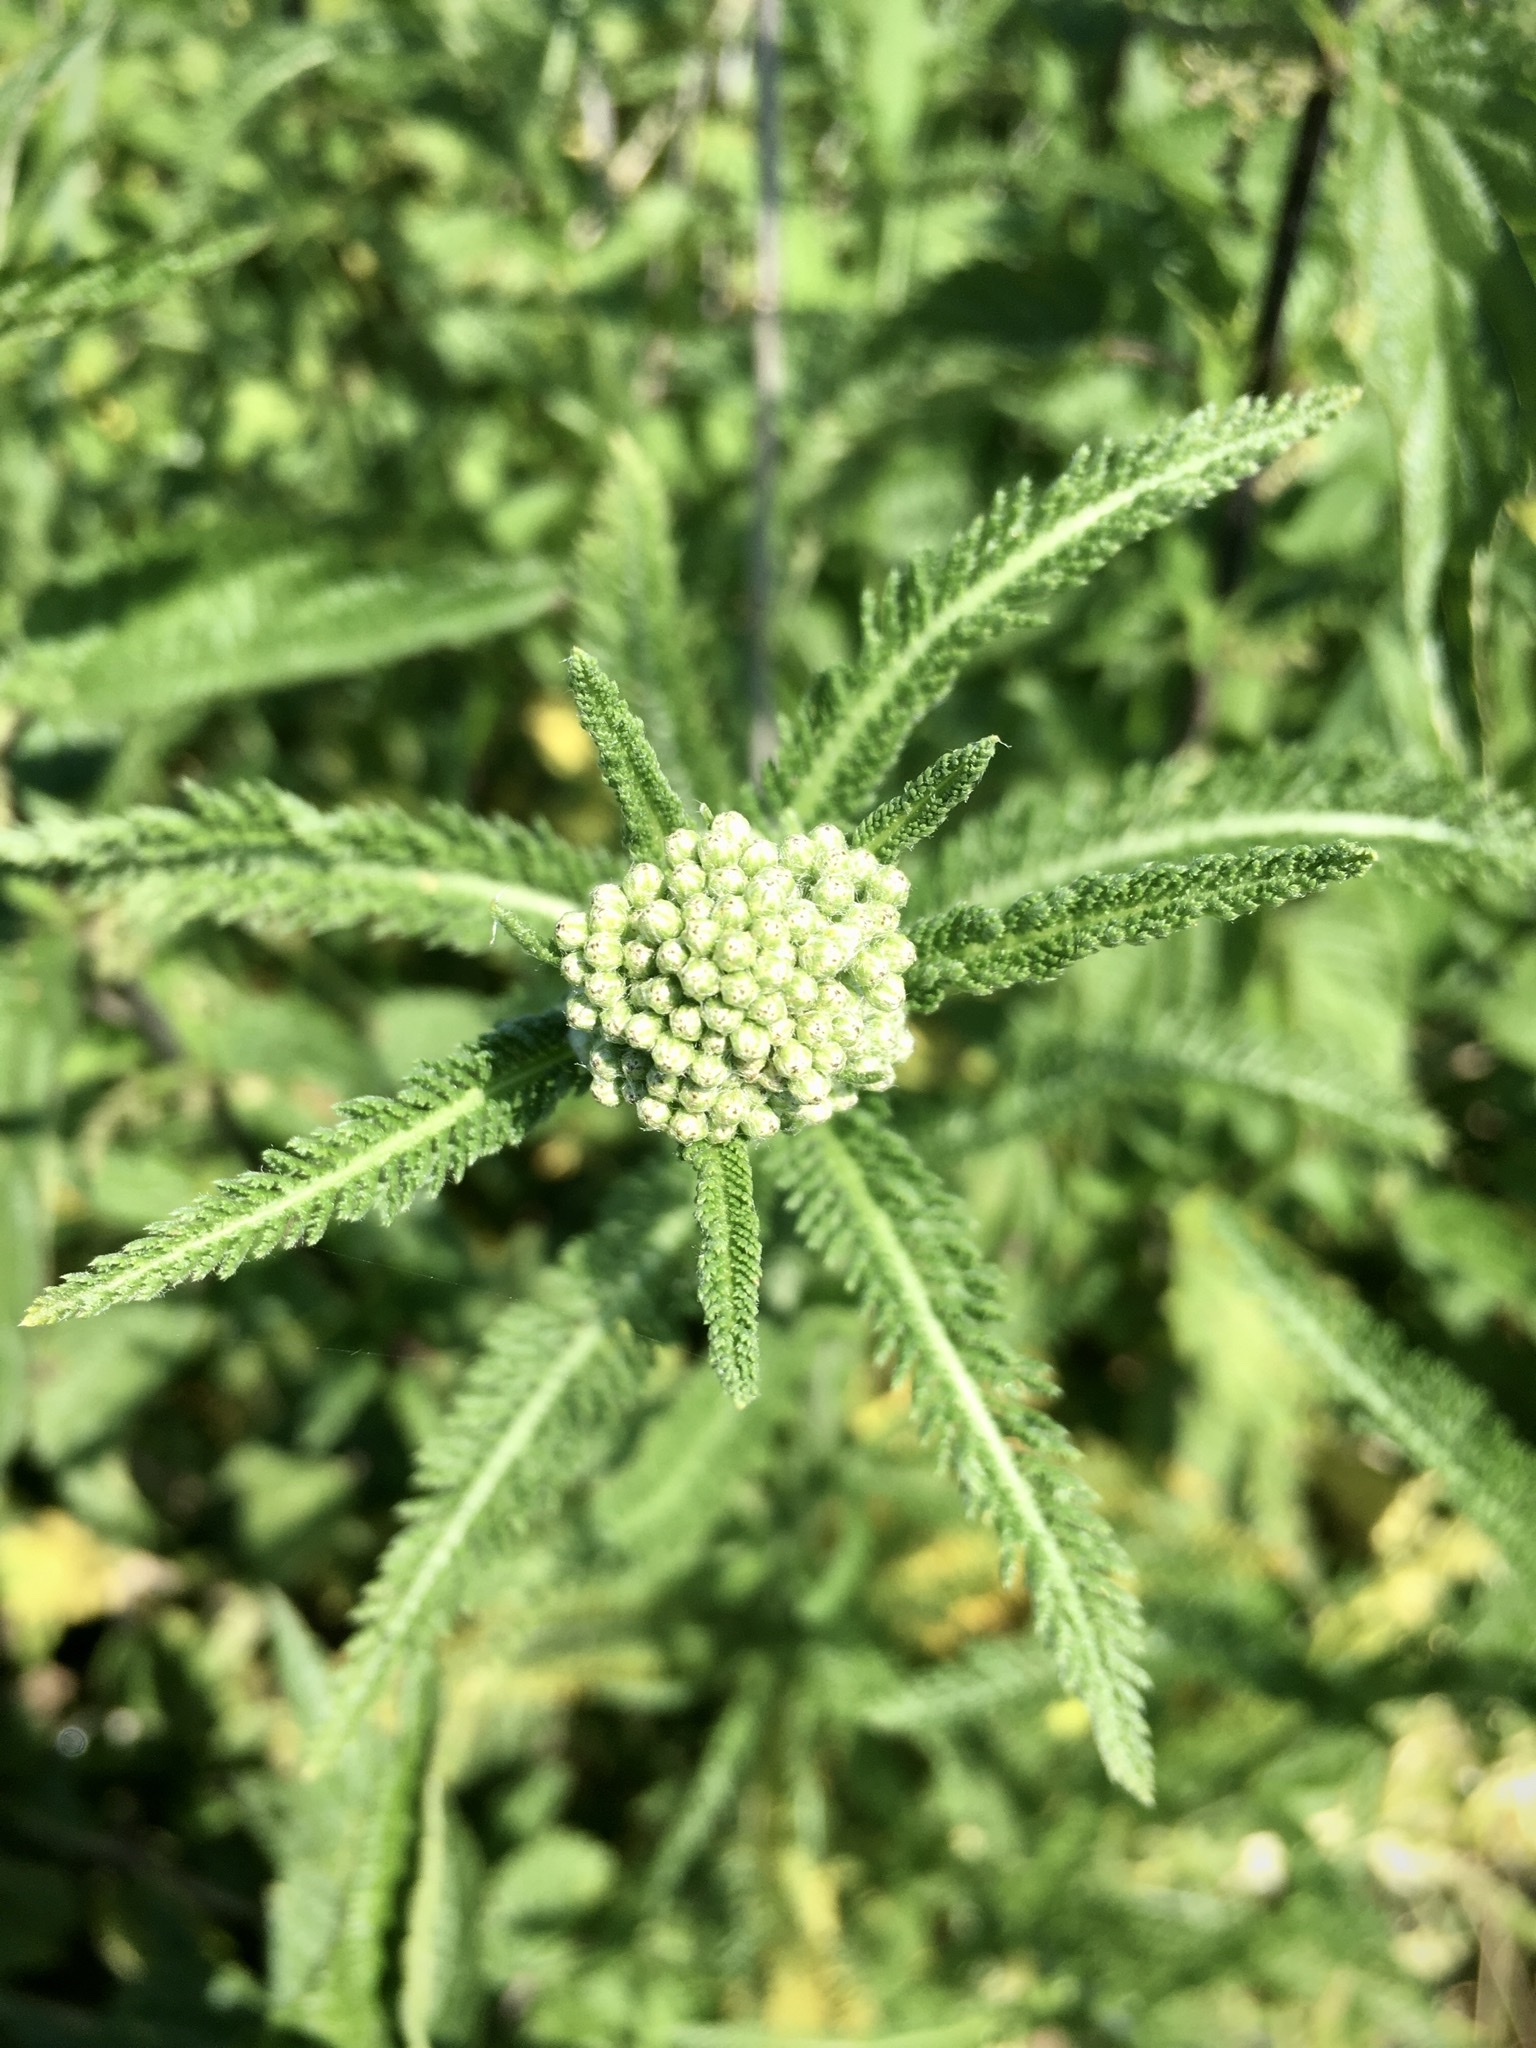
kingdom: Plantae
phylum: Tracheophyta
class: Magnoliopsida
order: Asterales
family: Asteraceae
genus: Achillea
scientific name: Achillea millefolium
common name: Yarrow
